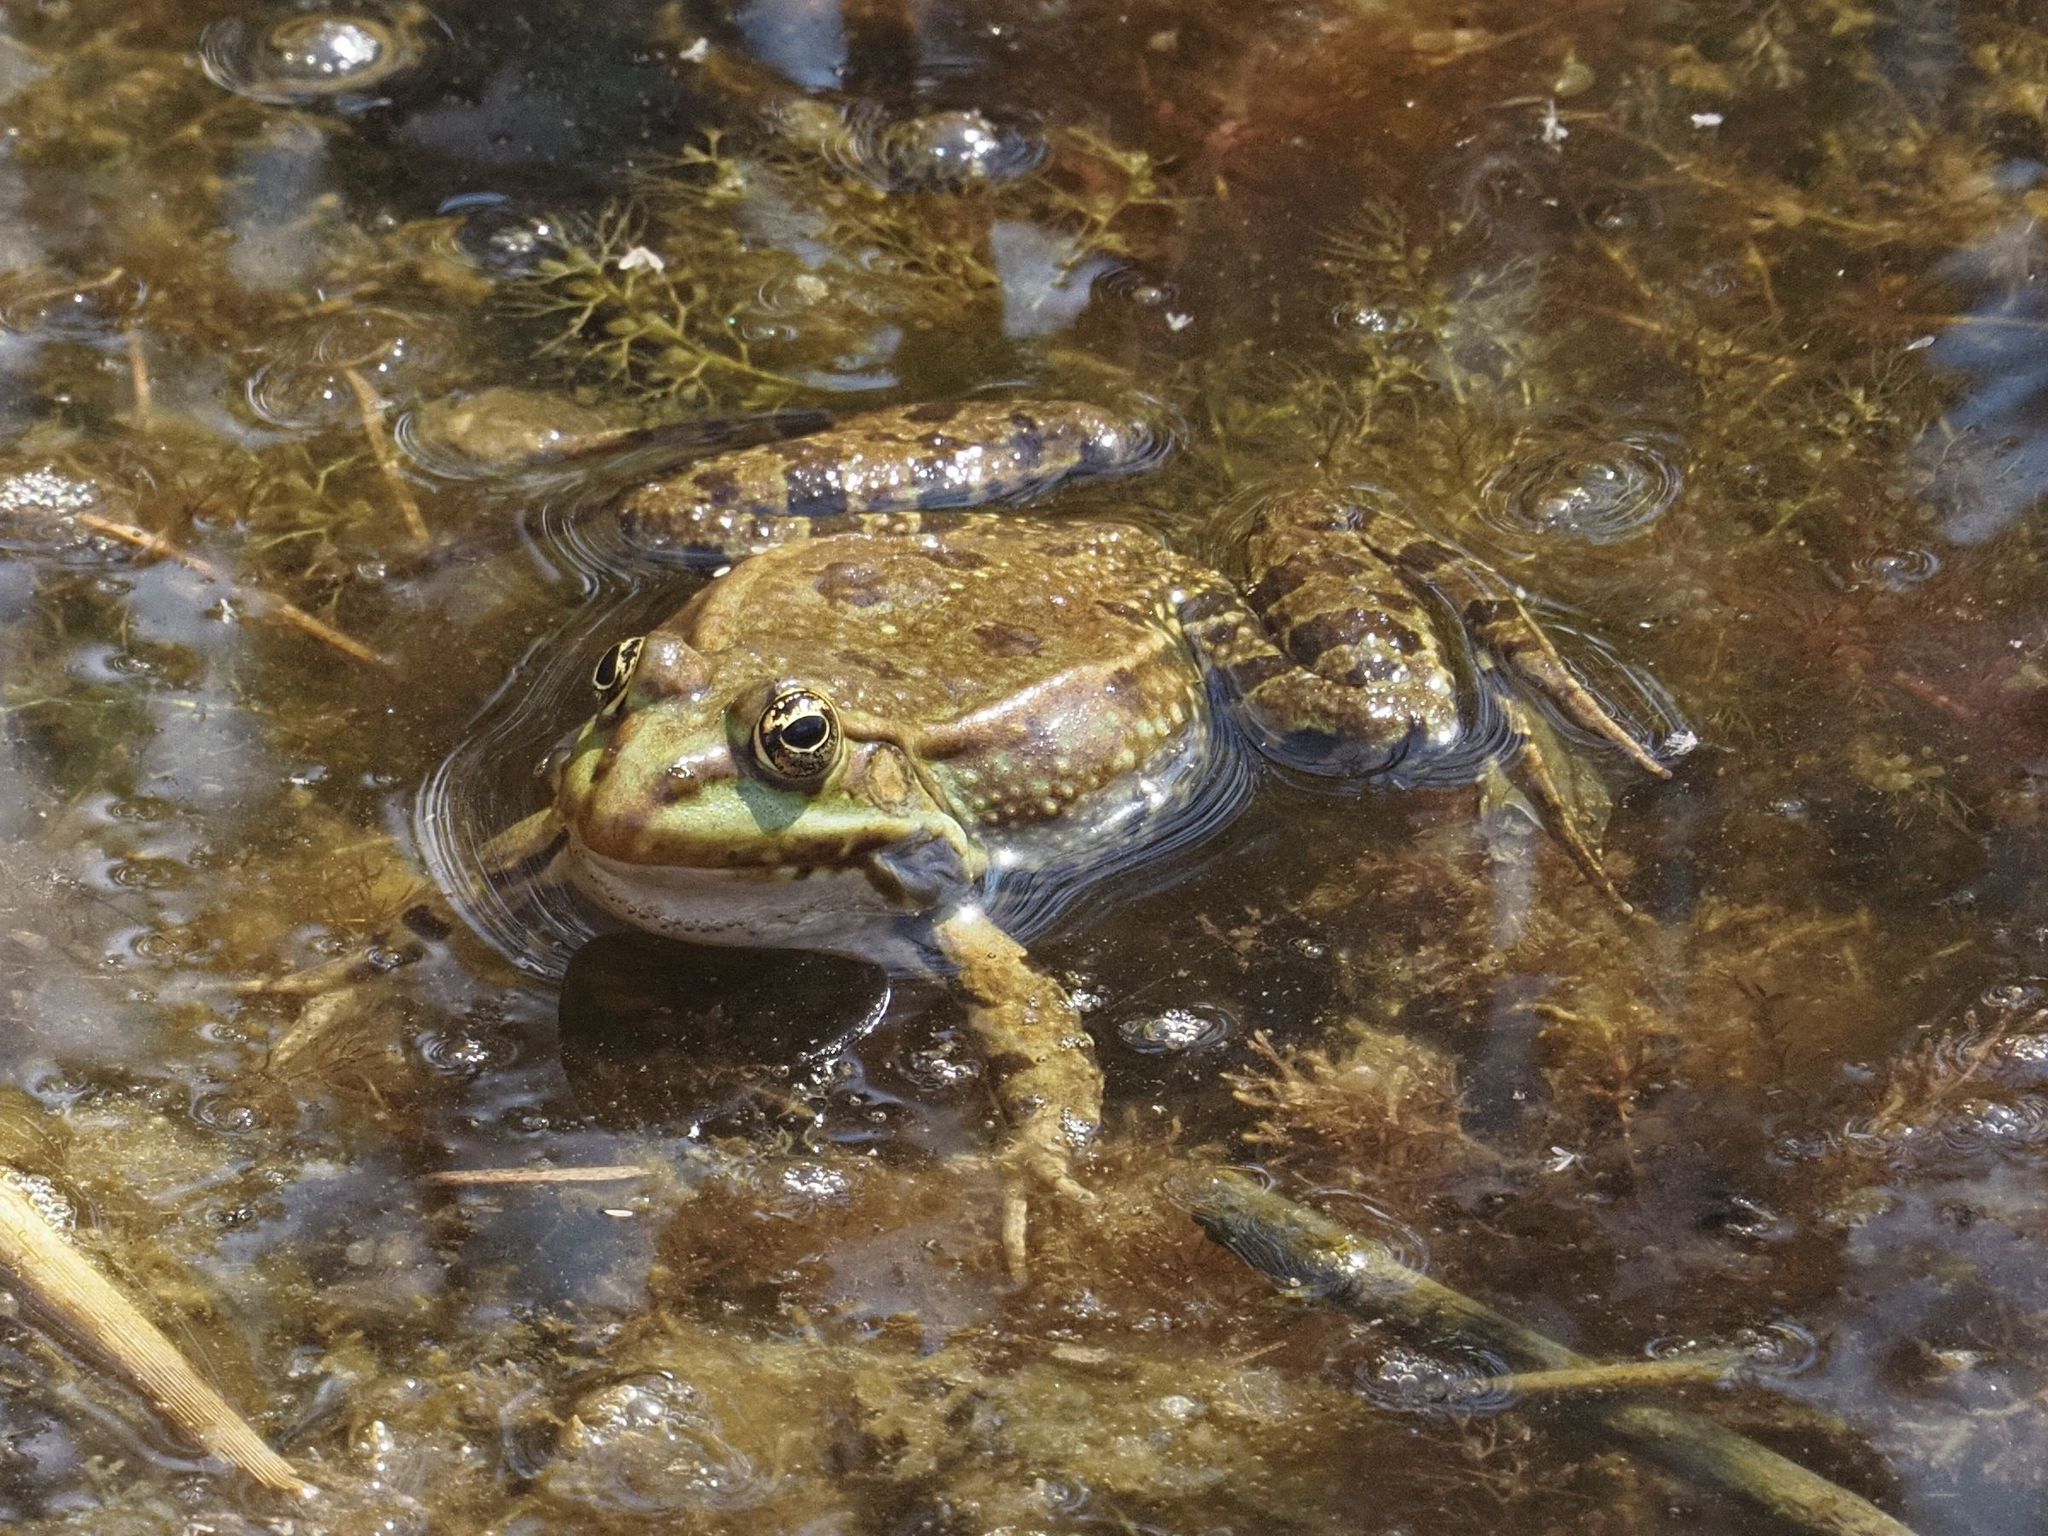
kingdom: Animalia
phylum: Chordata
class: Amphibia
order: Anura
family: Ranidae
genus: Pelophylax
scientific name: Pelophylax
